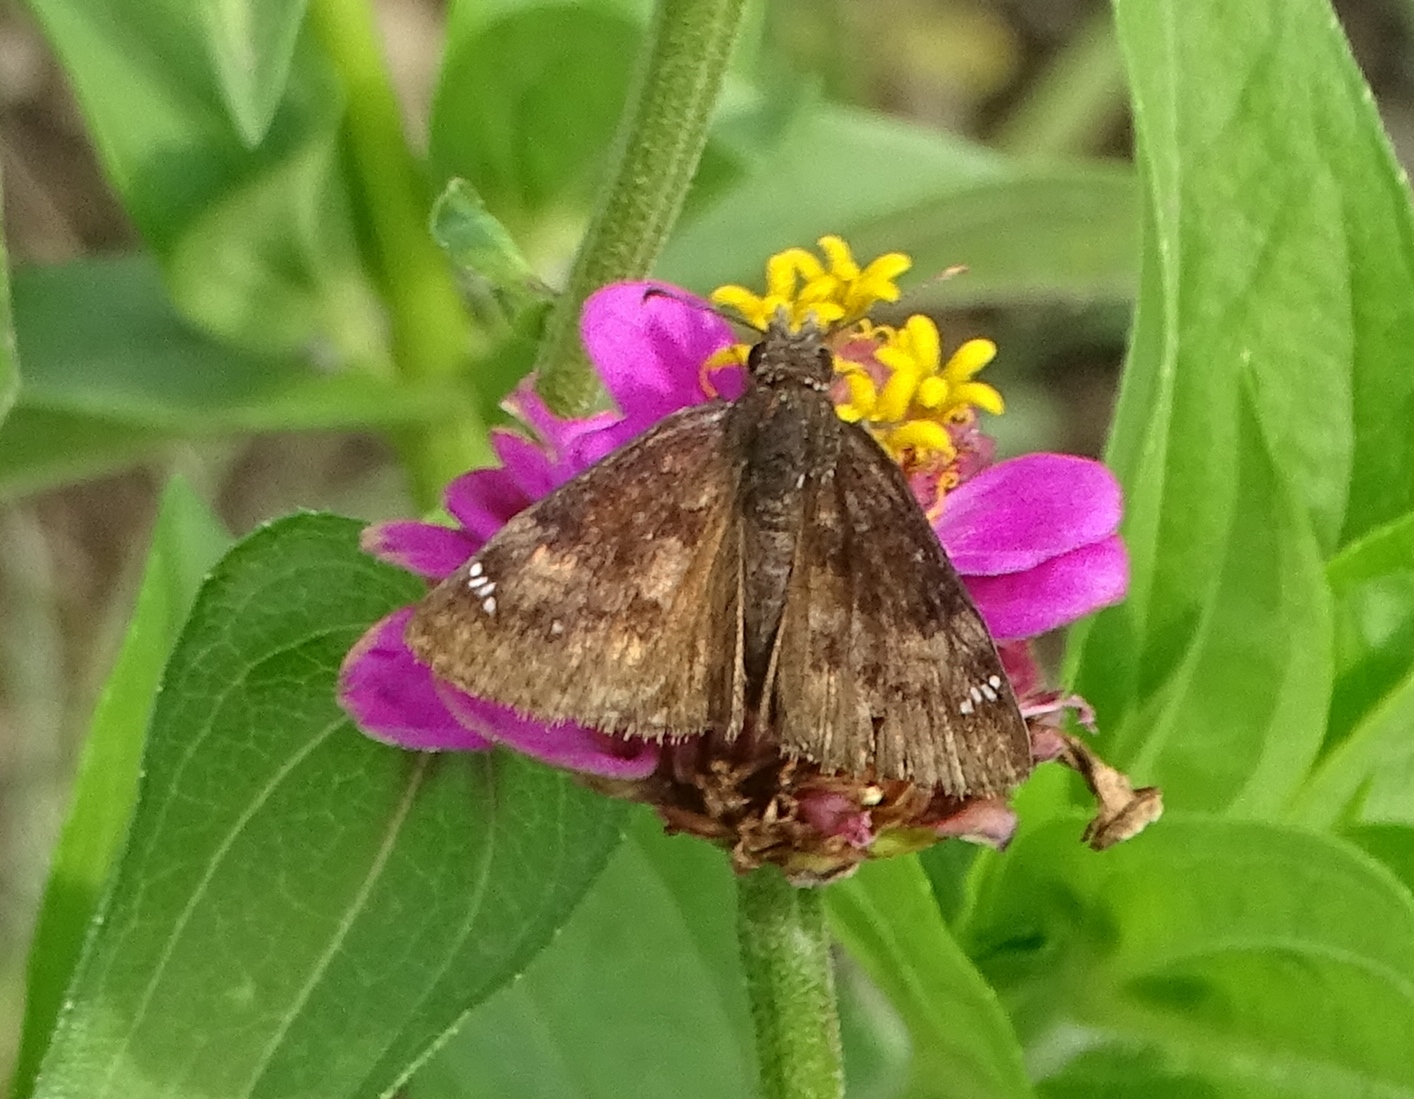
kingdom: Animalia
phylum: Arthropoda
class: Insecta
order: Lepidoptera
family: Hesperiidae
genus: Erynnis
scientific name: Erynnis baptisiae
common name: Wild indigo duskywing
